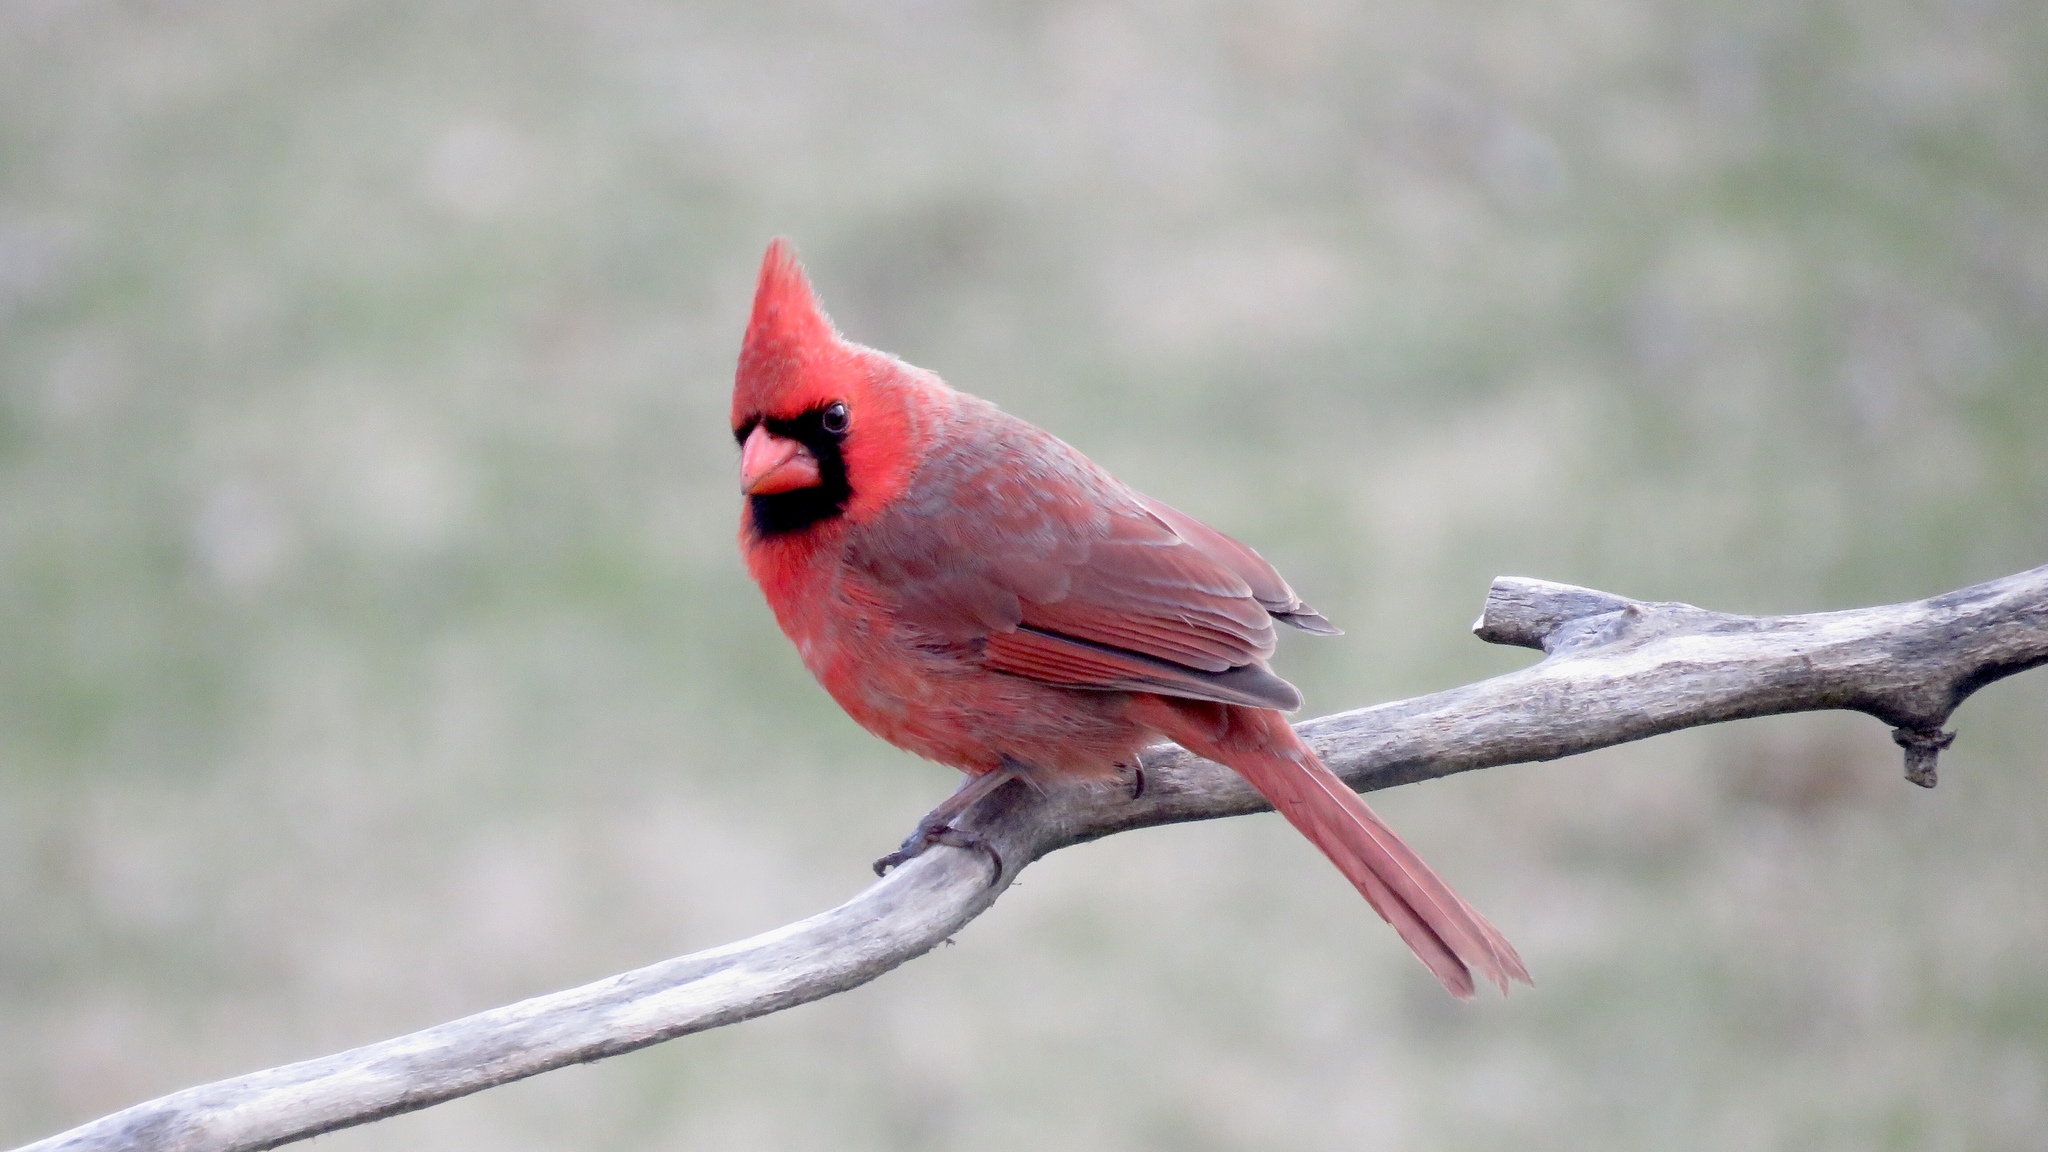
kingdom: Animalia
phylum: Chordata
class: Aves
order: Passeriformes
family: Cardinalidae
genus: Cardinalis
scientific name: Cardinalis cardinalis
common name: Northern cardinal
